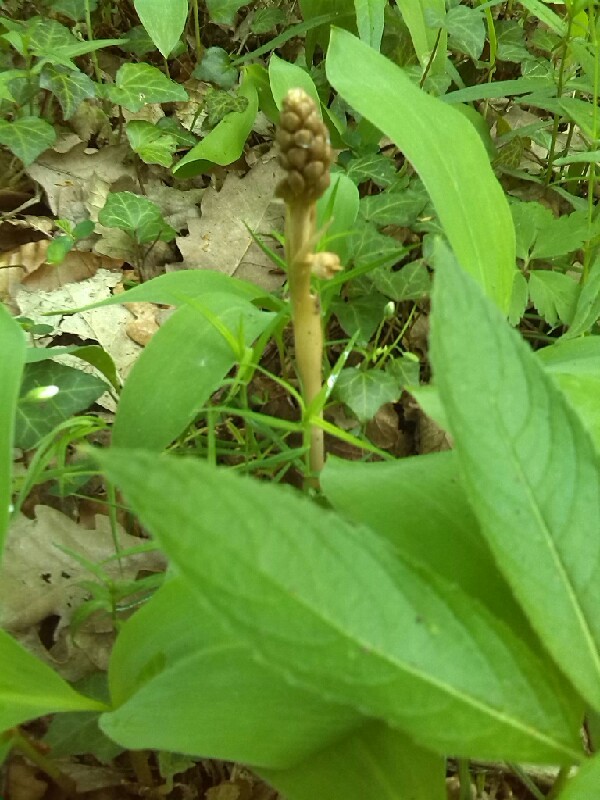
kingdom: Plantae
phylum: Tracheophyta
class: Liliopsida
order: Asparagales
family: Orchidaceae
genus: Neottia
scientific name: Neottia nidus-avis
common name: Bird's-nest orchid
